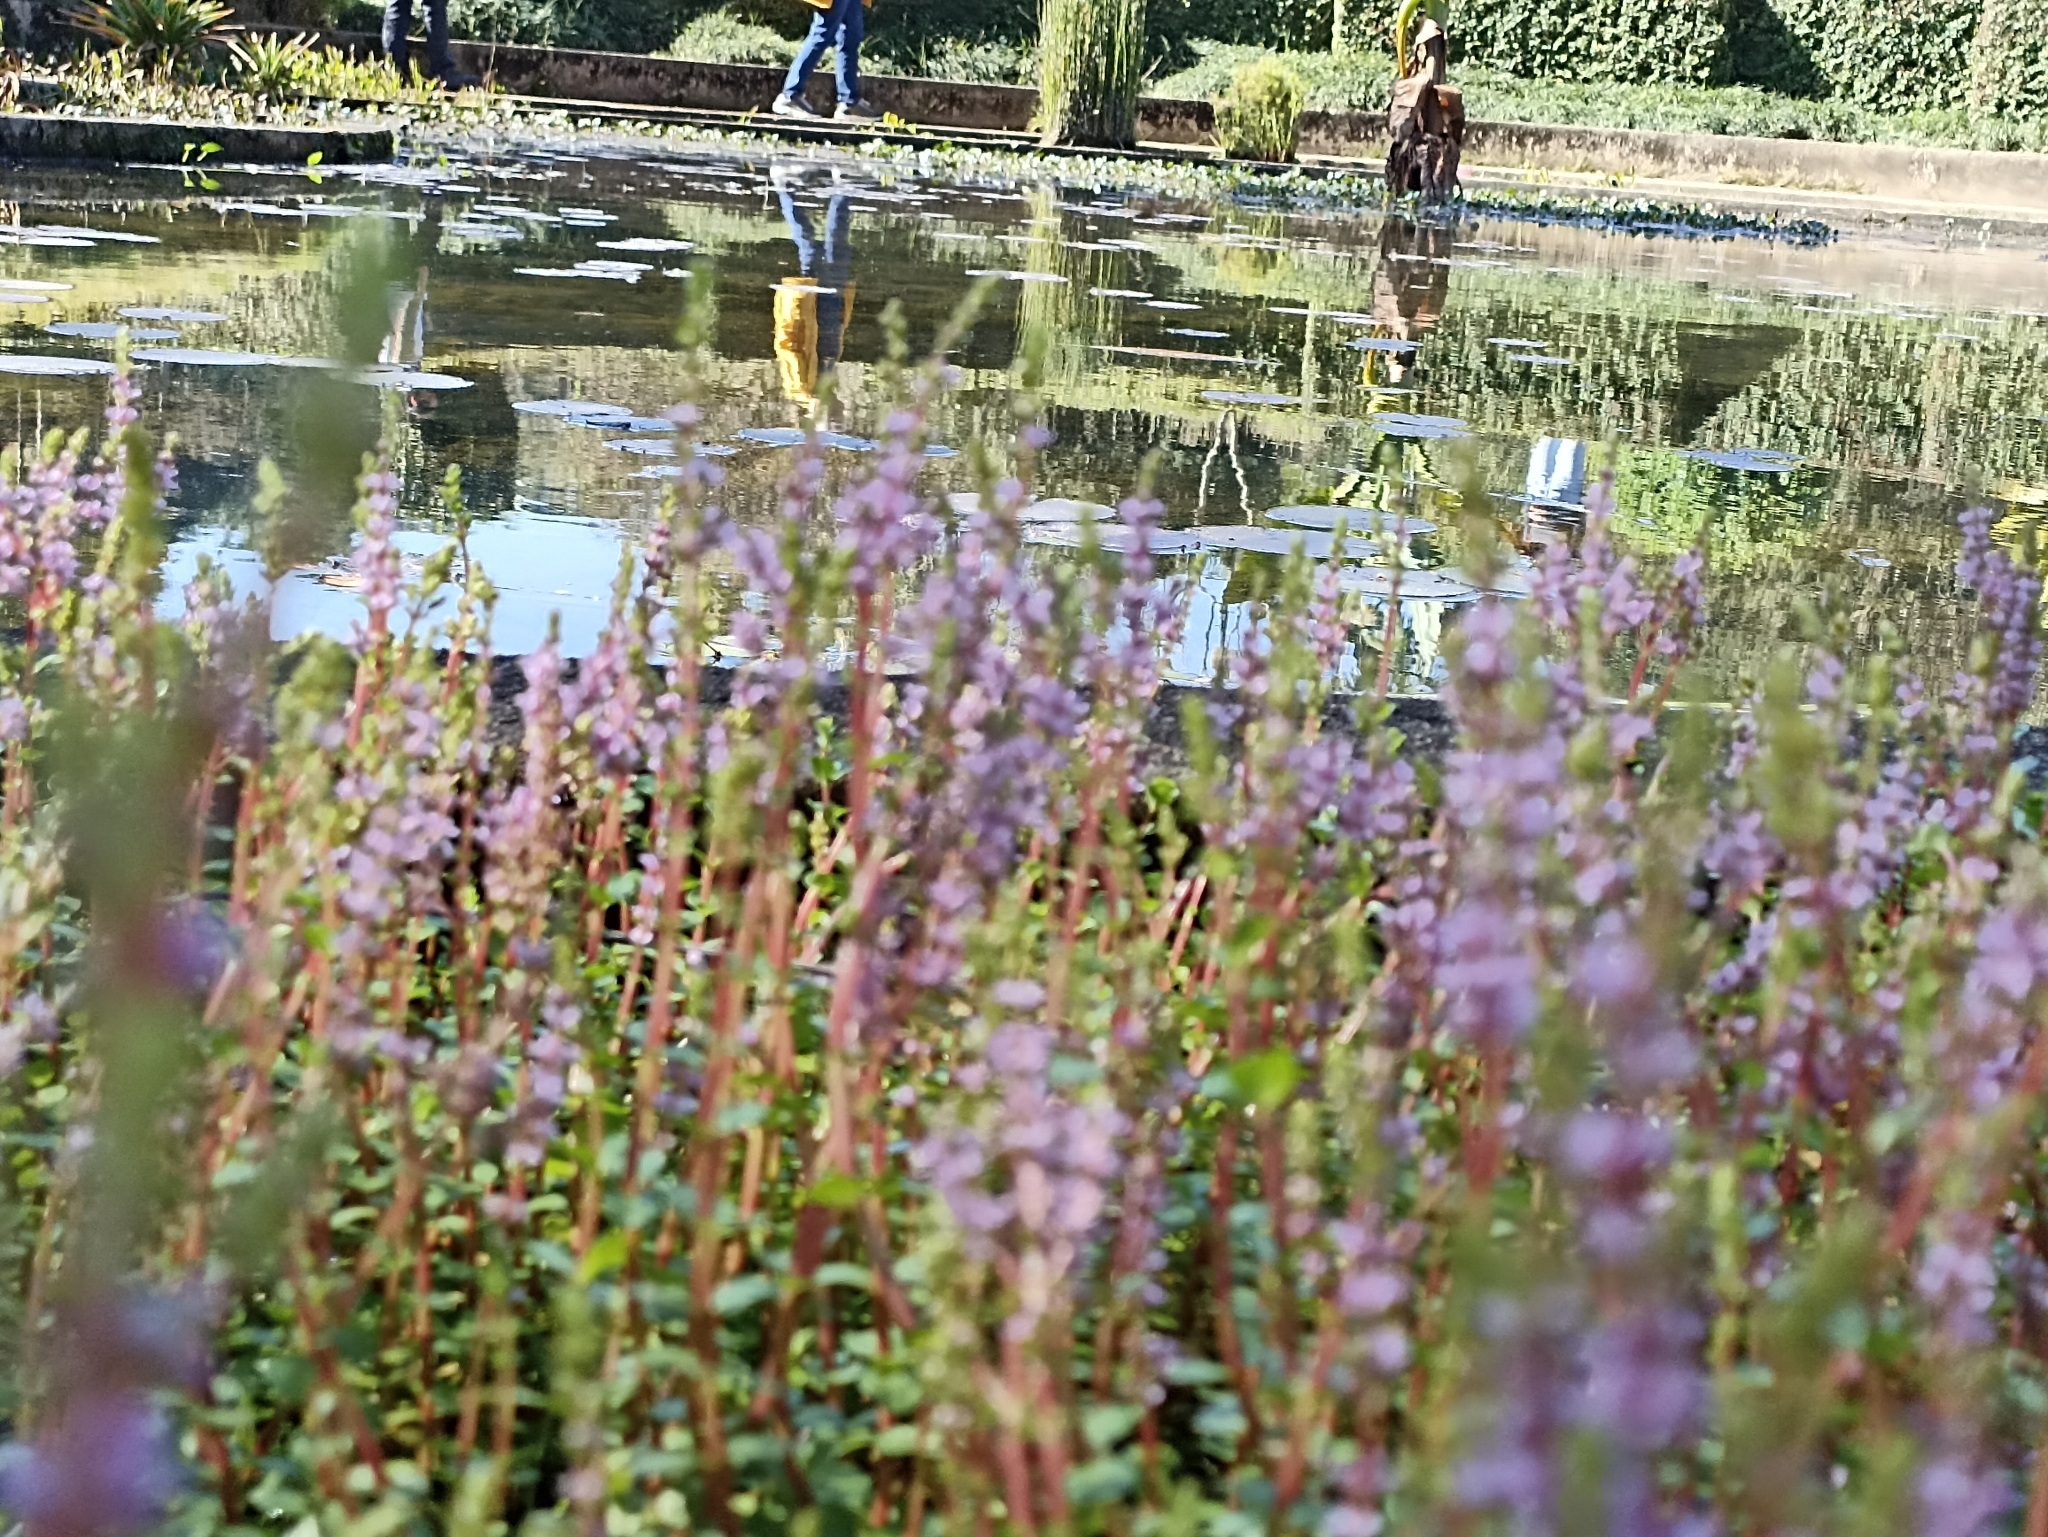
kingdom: Plantae
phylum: Tracheophyta
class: Magnoliopsida
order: Myrtales
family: Lythraceae
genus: Rotala
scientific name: Rotala rotundifolia
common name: Roundleaf toothcup
